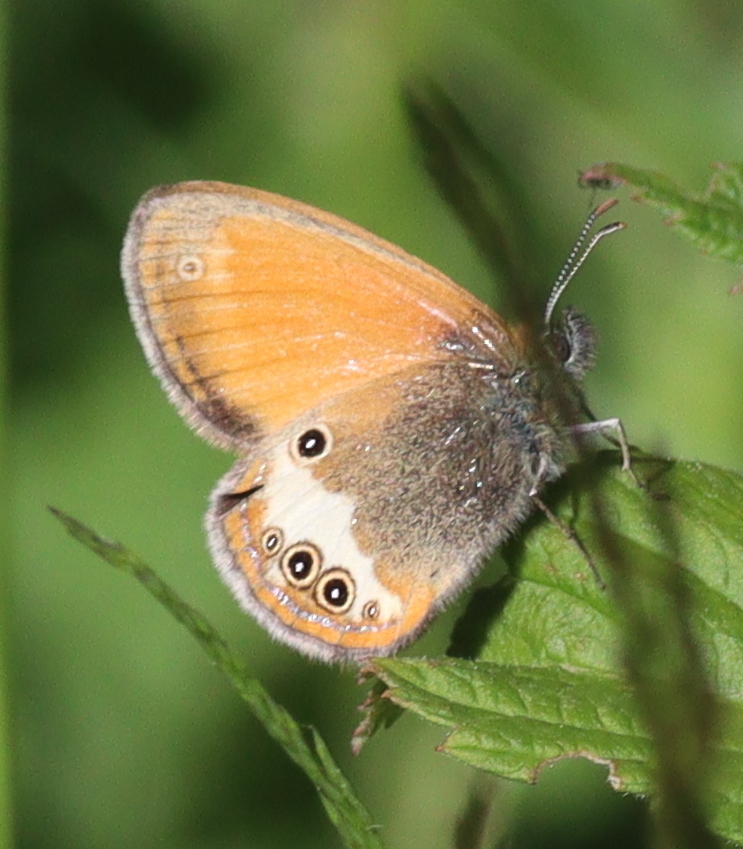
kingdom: Animalia
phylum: Arthropoda
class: Insecta
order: Lepidoptera
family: Nymphalidae
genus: Coenonympha
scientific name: Coenonympha arcania
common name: Pearly heath
